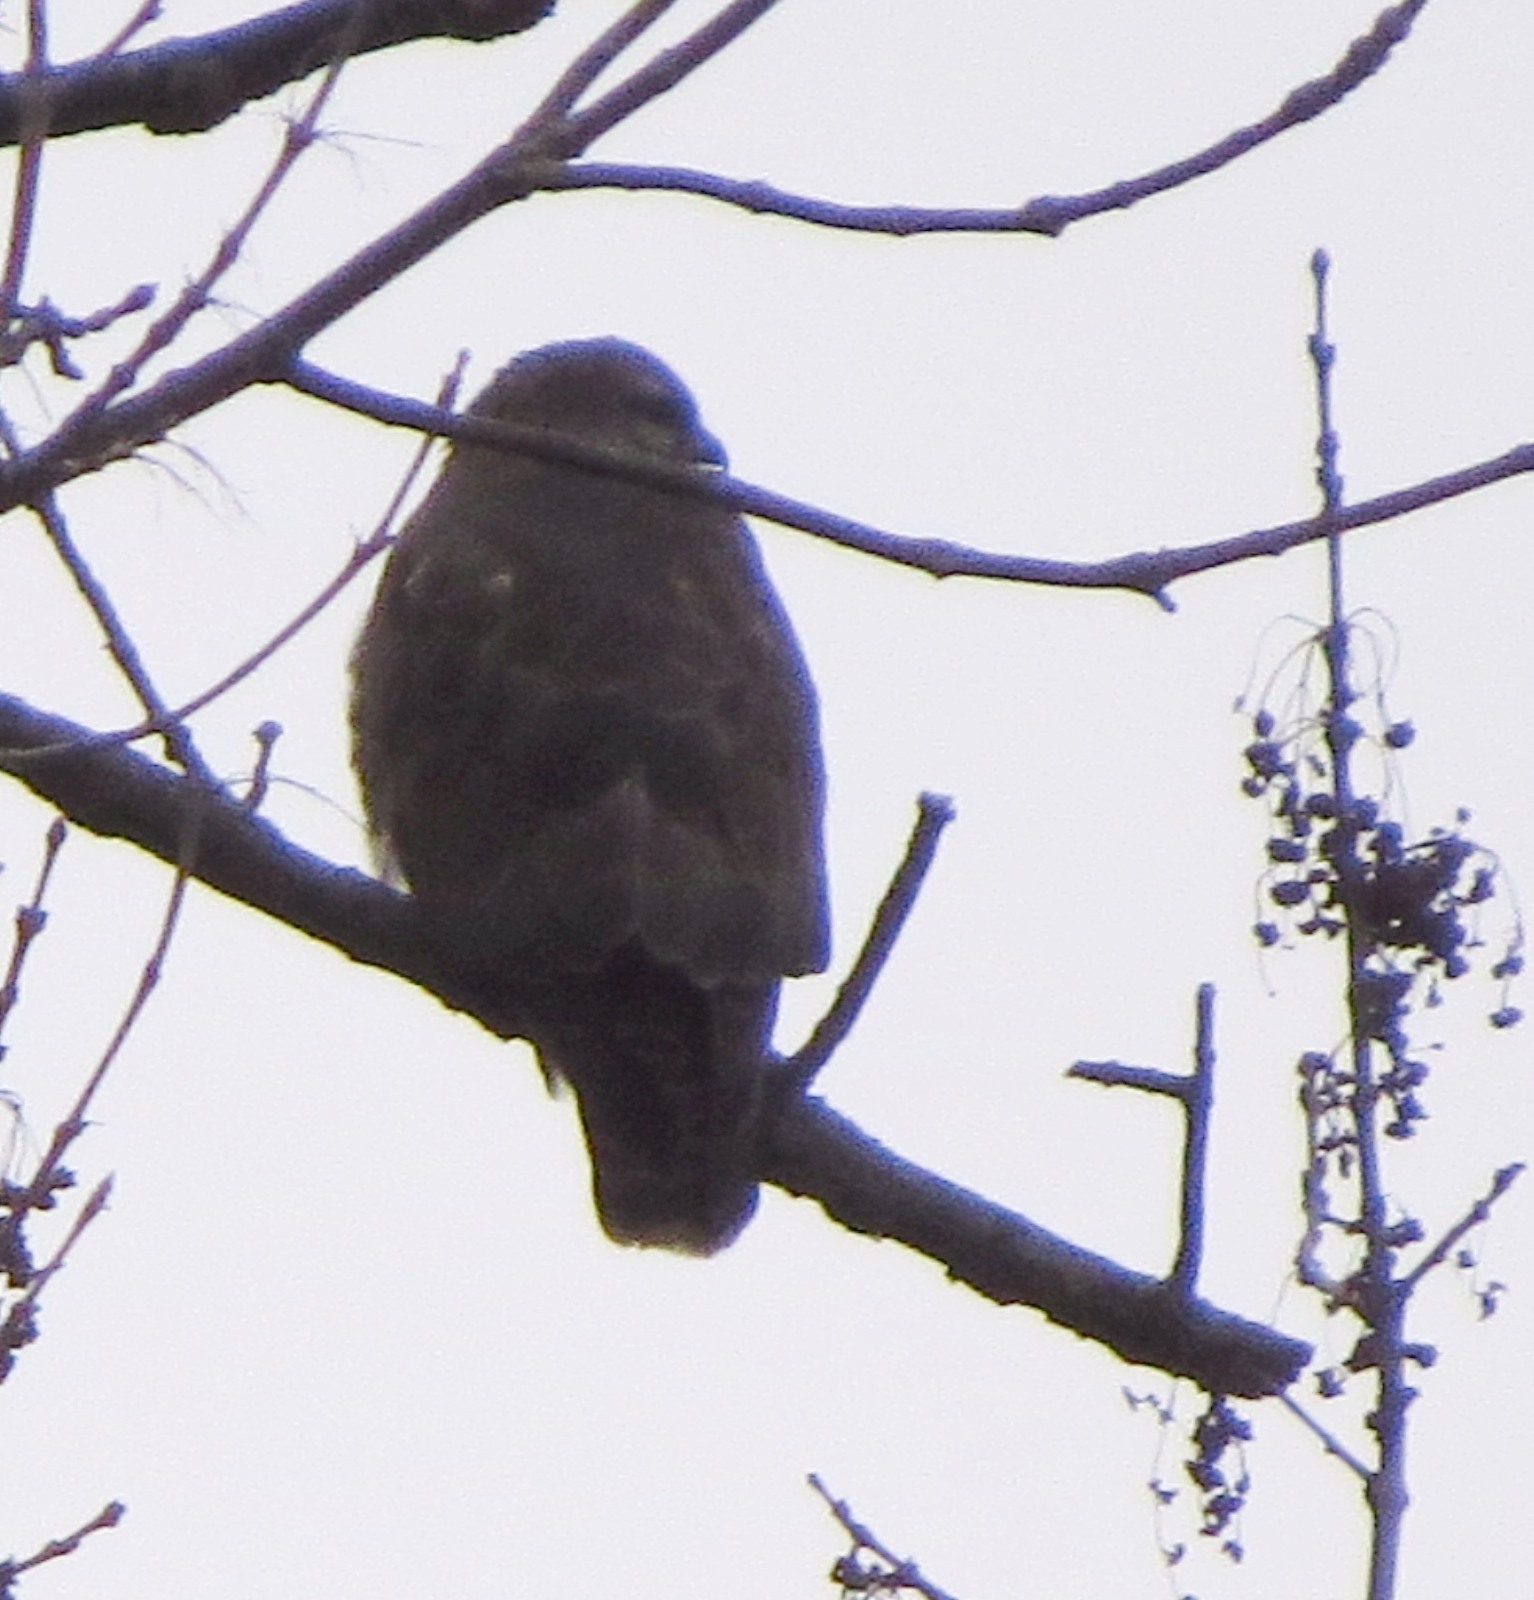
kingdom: Animalia
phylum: Chordata
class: Aves
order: Accipitriformes
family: Accipitridae
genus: Buteo
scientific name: Buteo buteo
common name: Common buzzard
